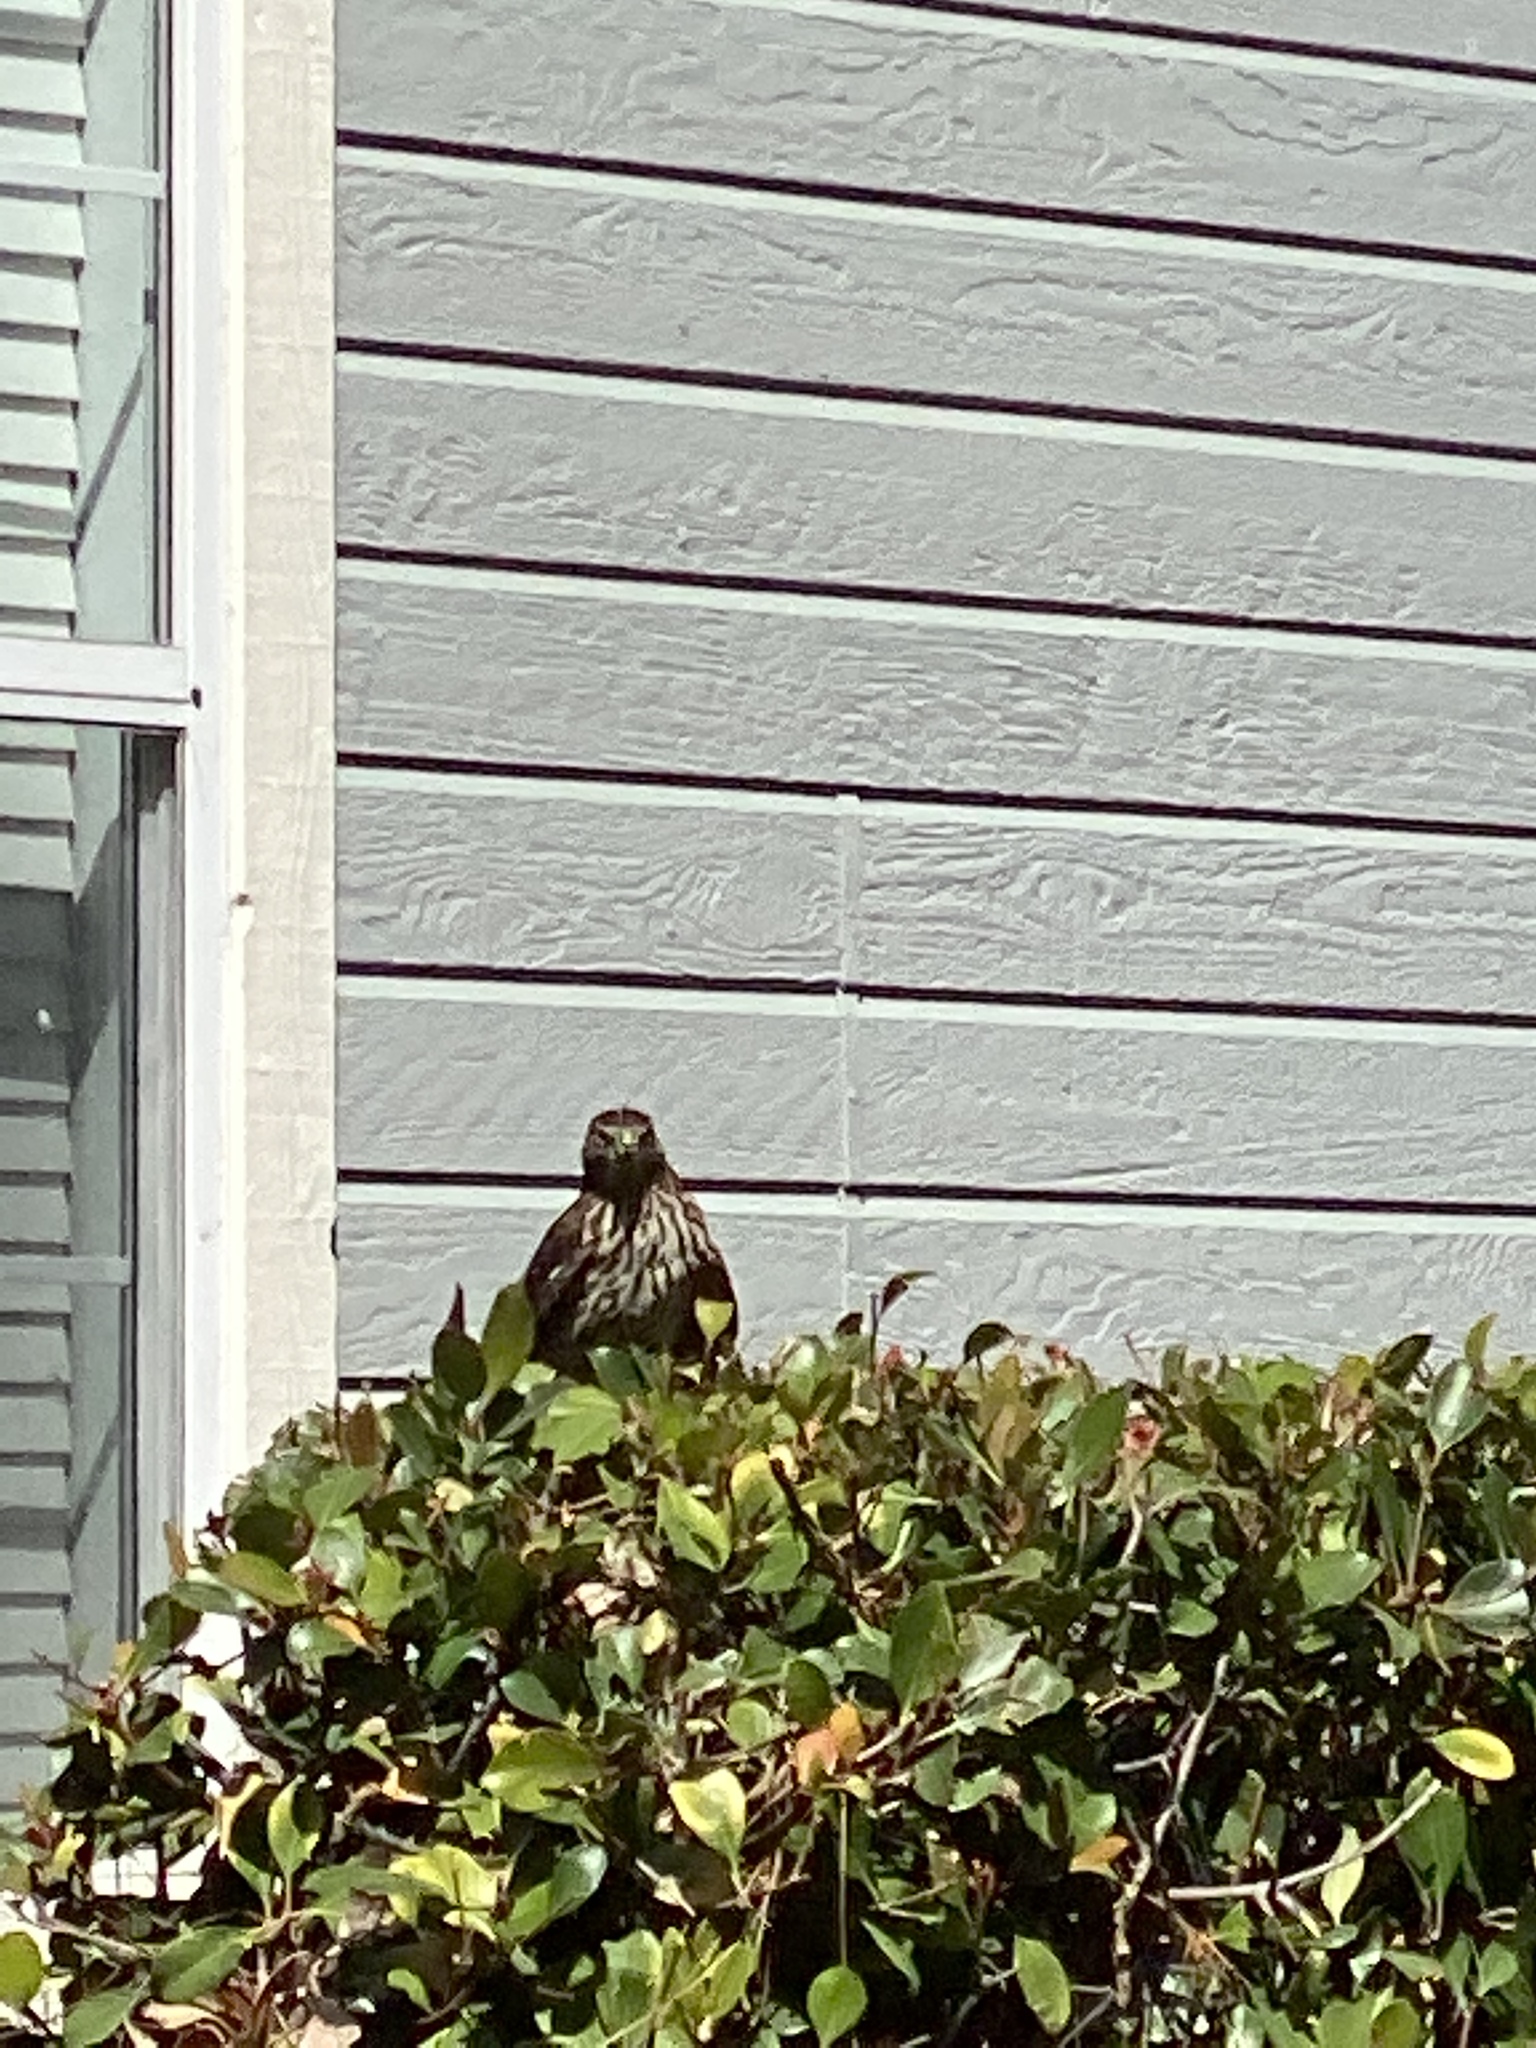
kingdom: Animalia
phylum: Chordata
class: Aves
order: Accipitriformes
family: Accipitridae
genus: Accipiter
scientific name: Accipiter cooperii
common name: Cooper's hawk
